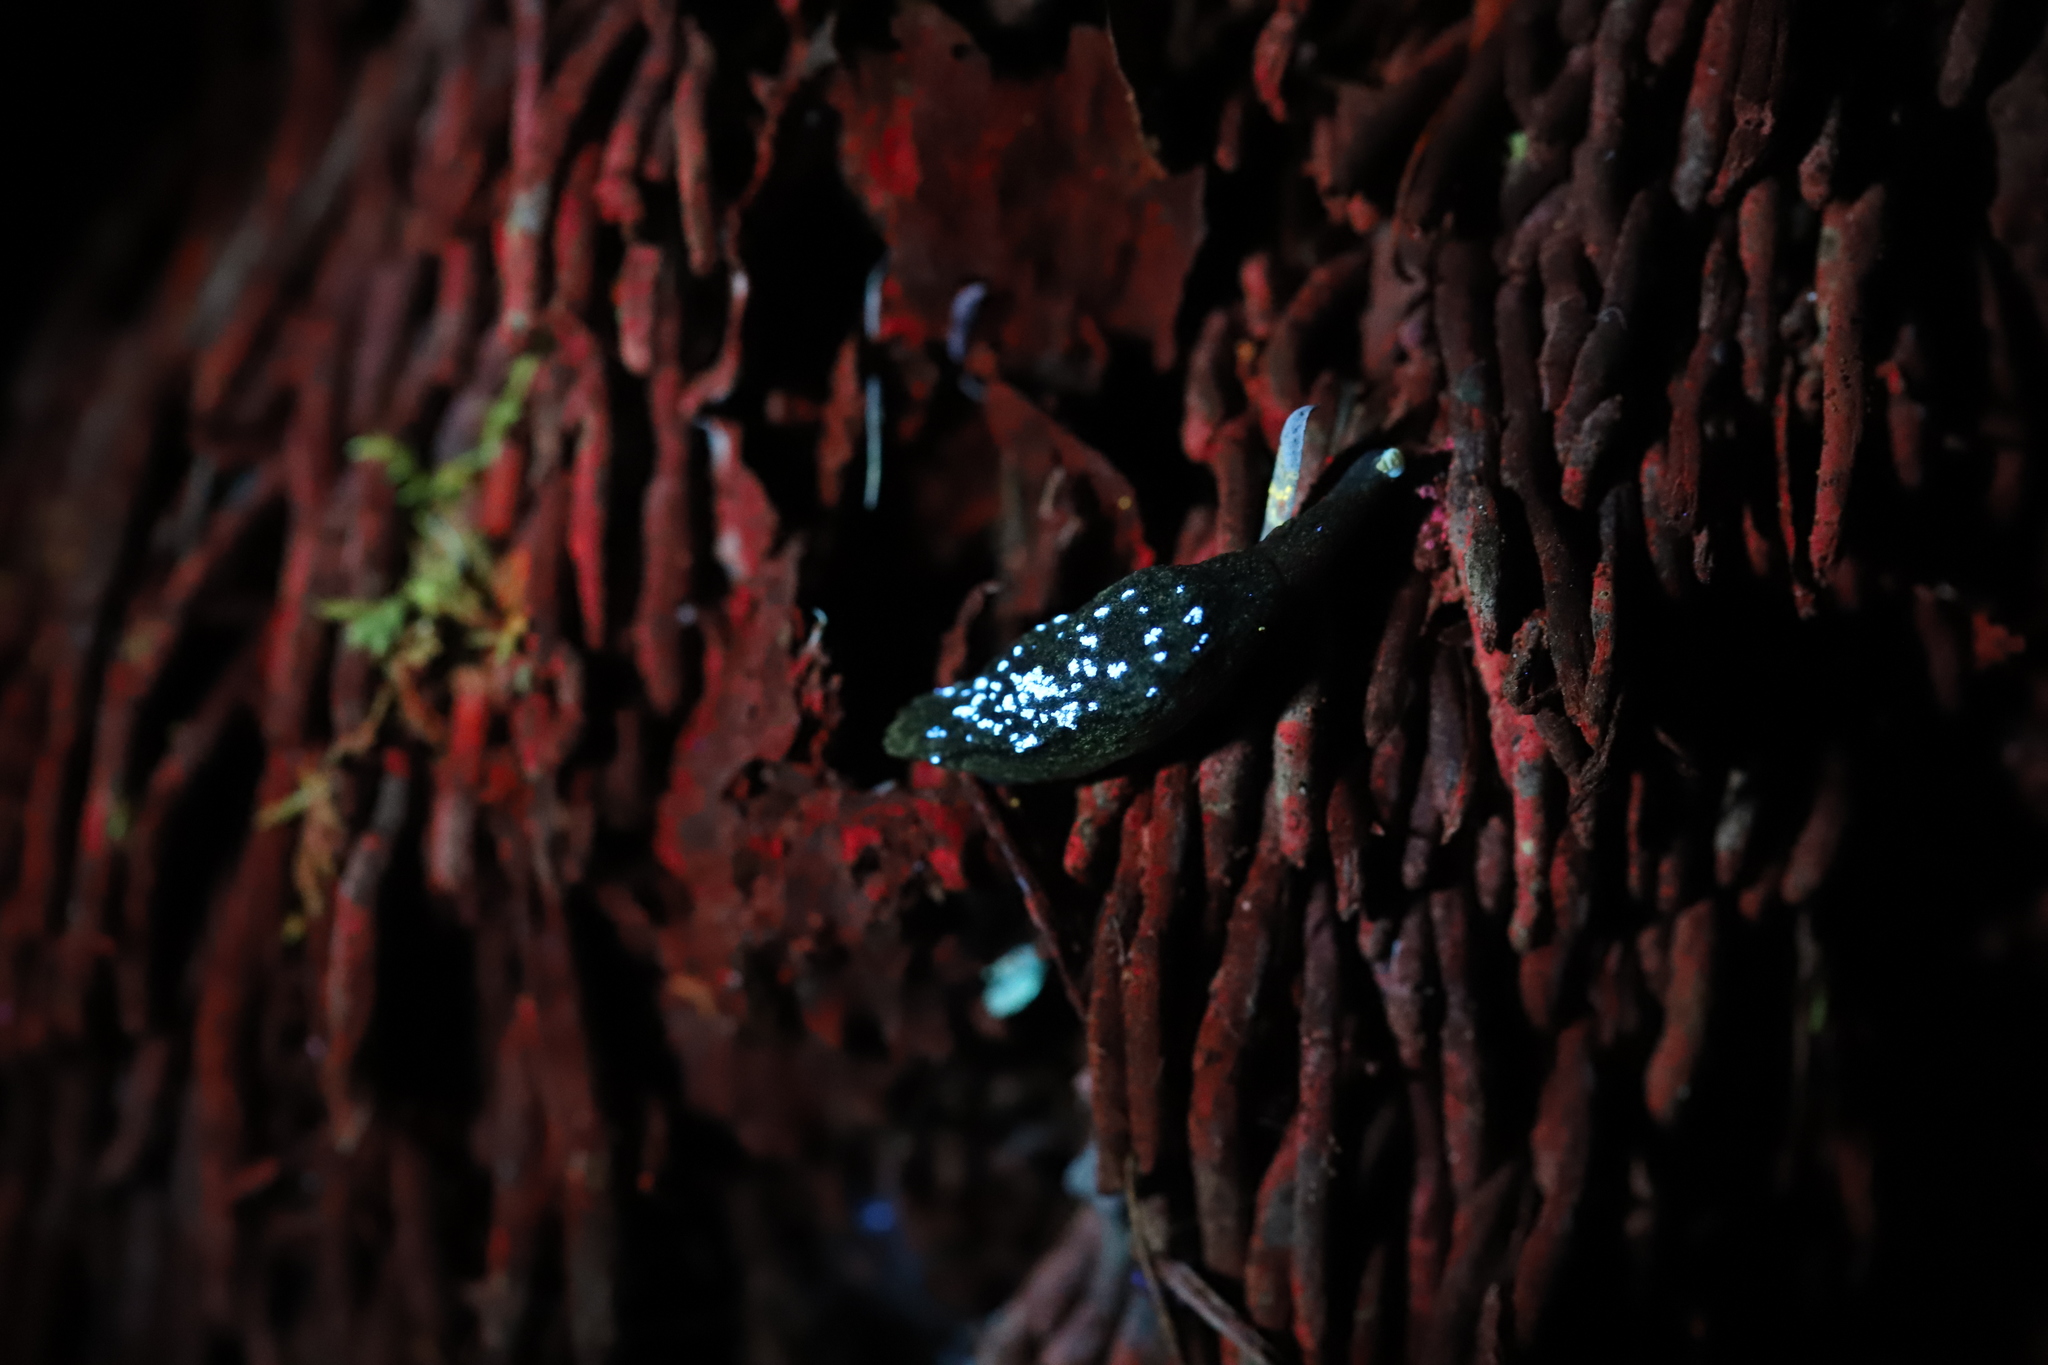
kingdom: Animalia
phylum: Mollusca
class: Gastropoda
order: Stylommatophora
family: Cystopeltidae
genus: Cystopelta
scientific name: Cystopelta purpurea
